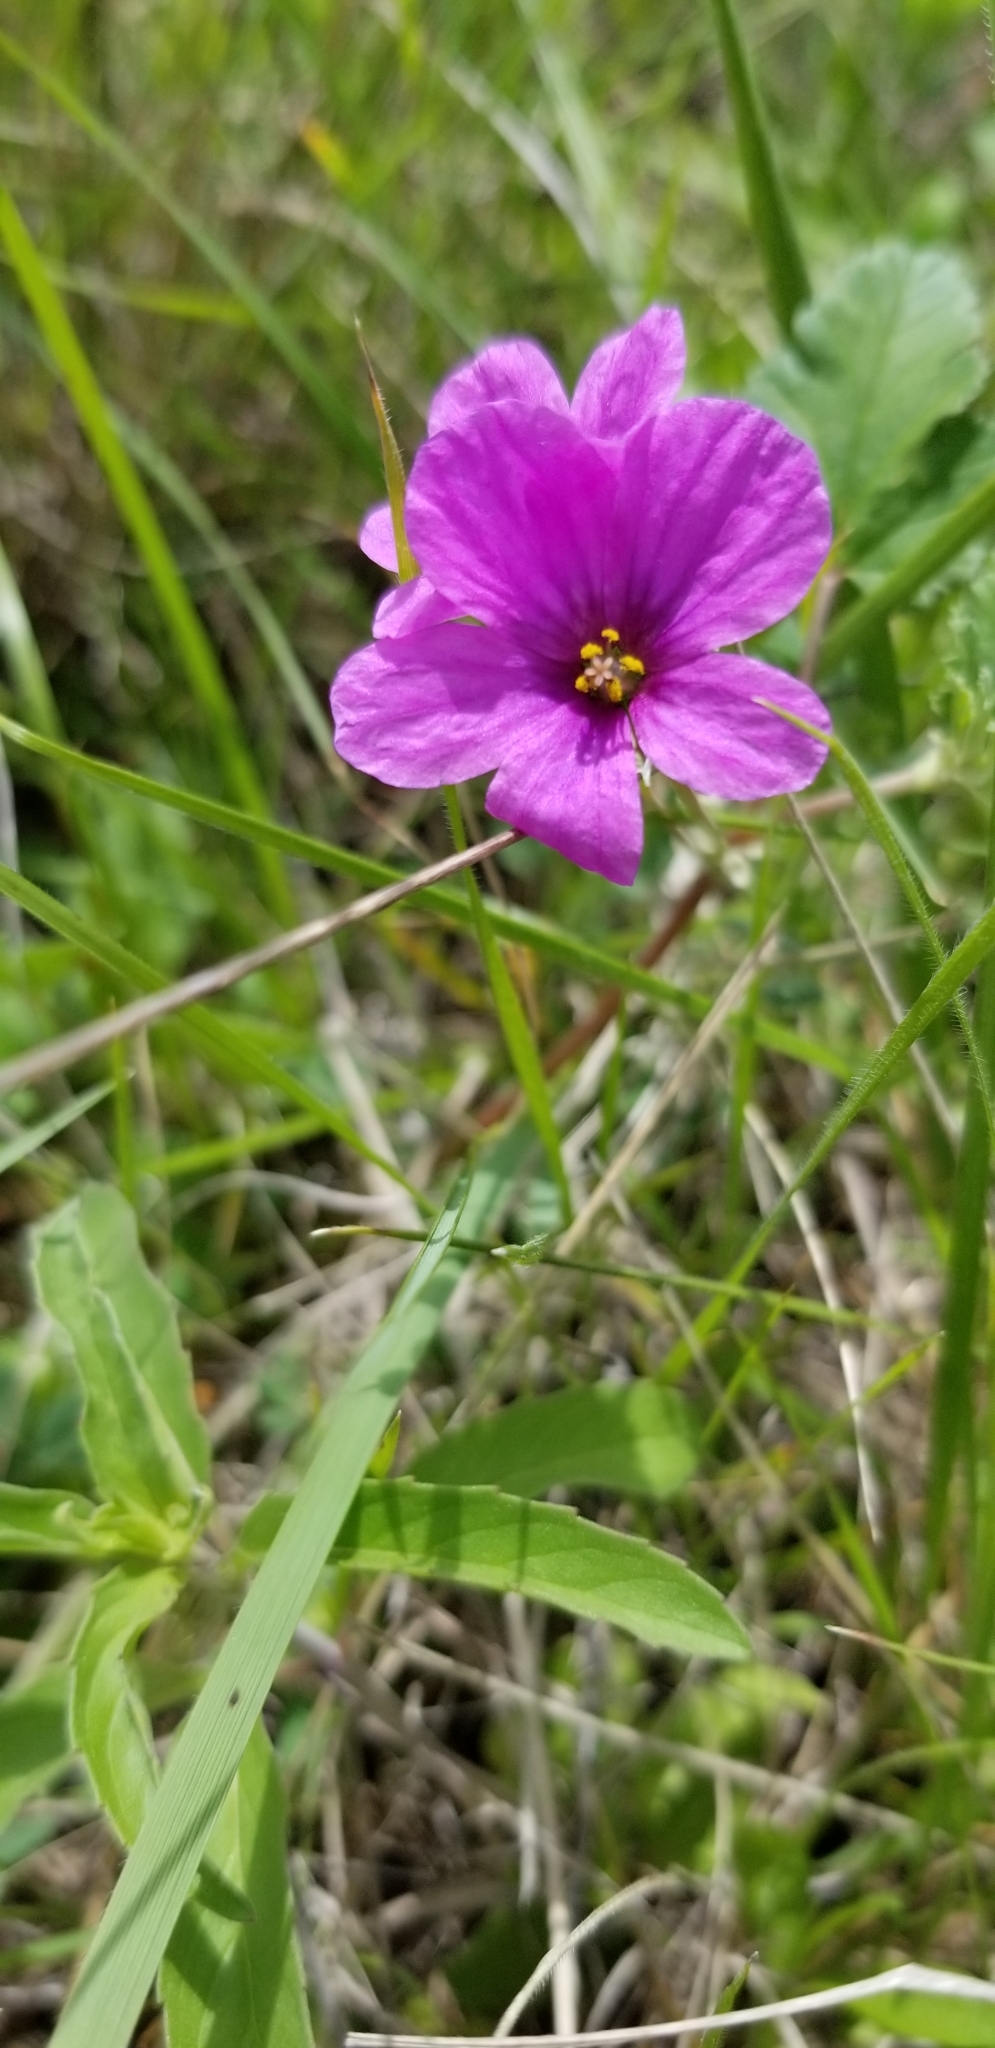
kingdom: Plantae
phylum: Tracheophyta
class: Magnoliopsida
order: Geraniales
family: Geraniaceae
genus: Erodium
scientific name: Erodium texanum
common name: Texas stork's-bill
